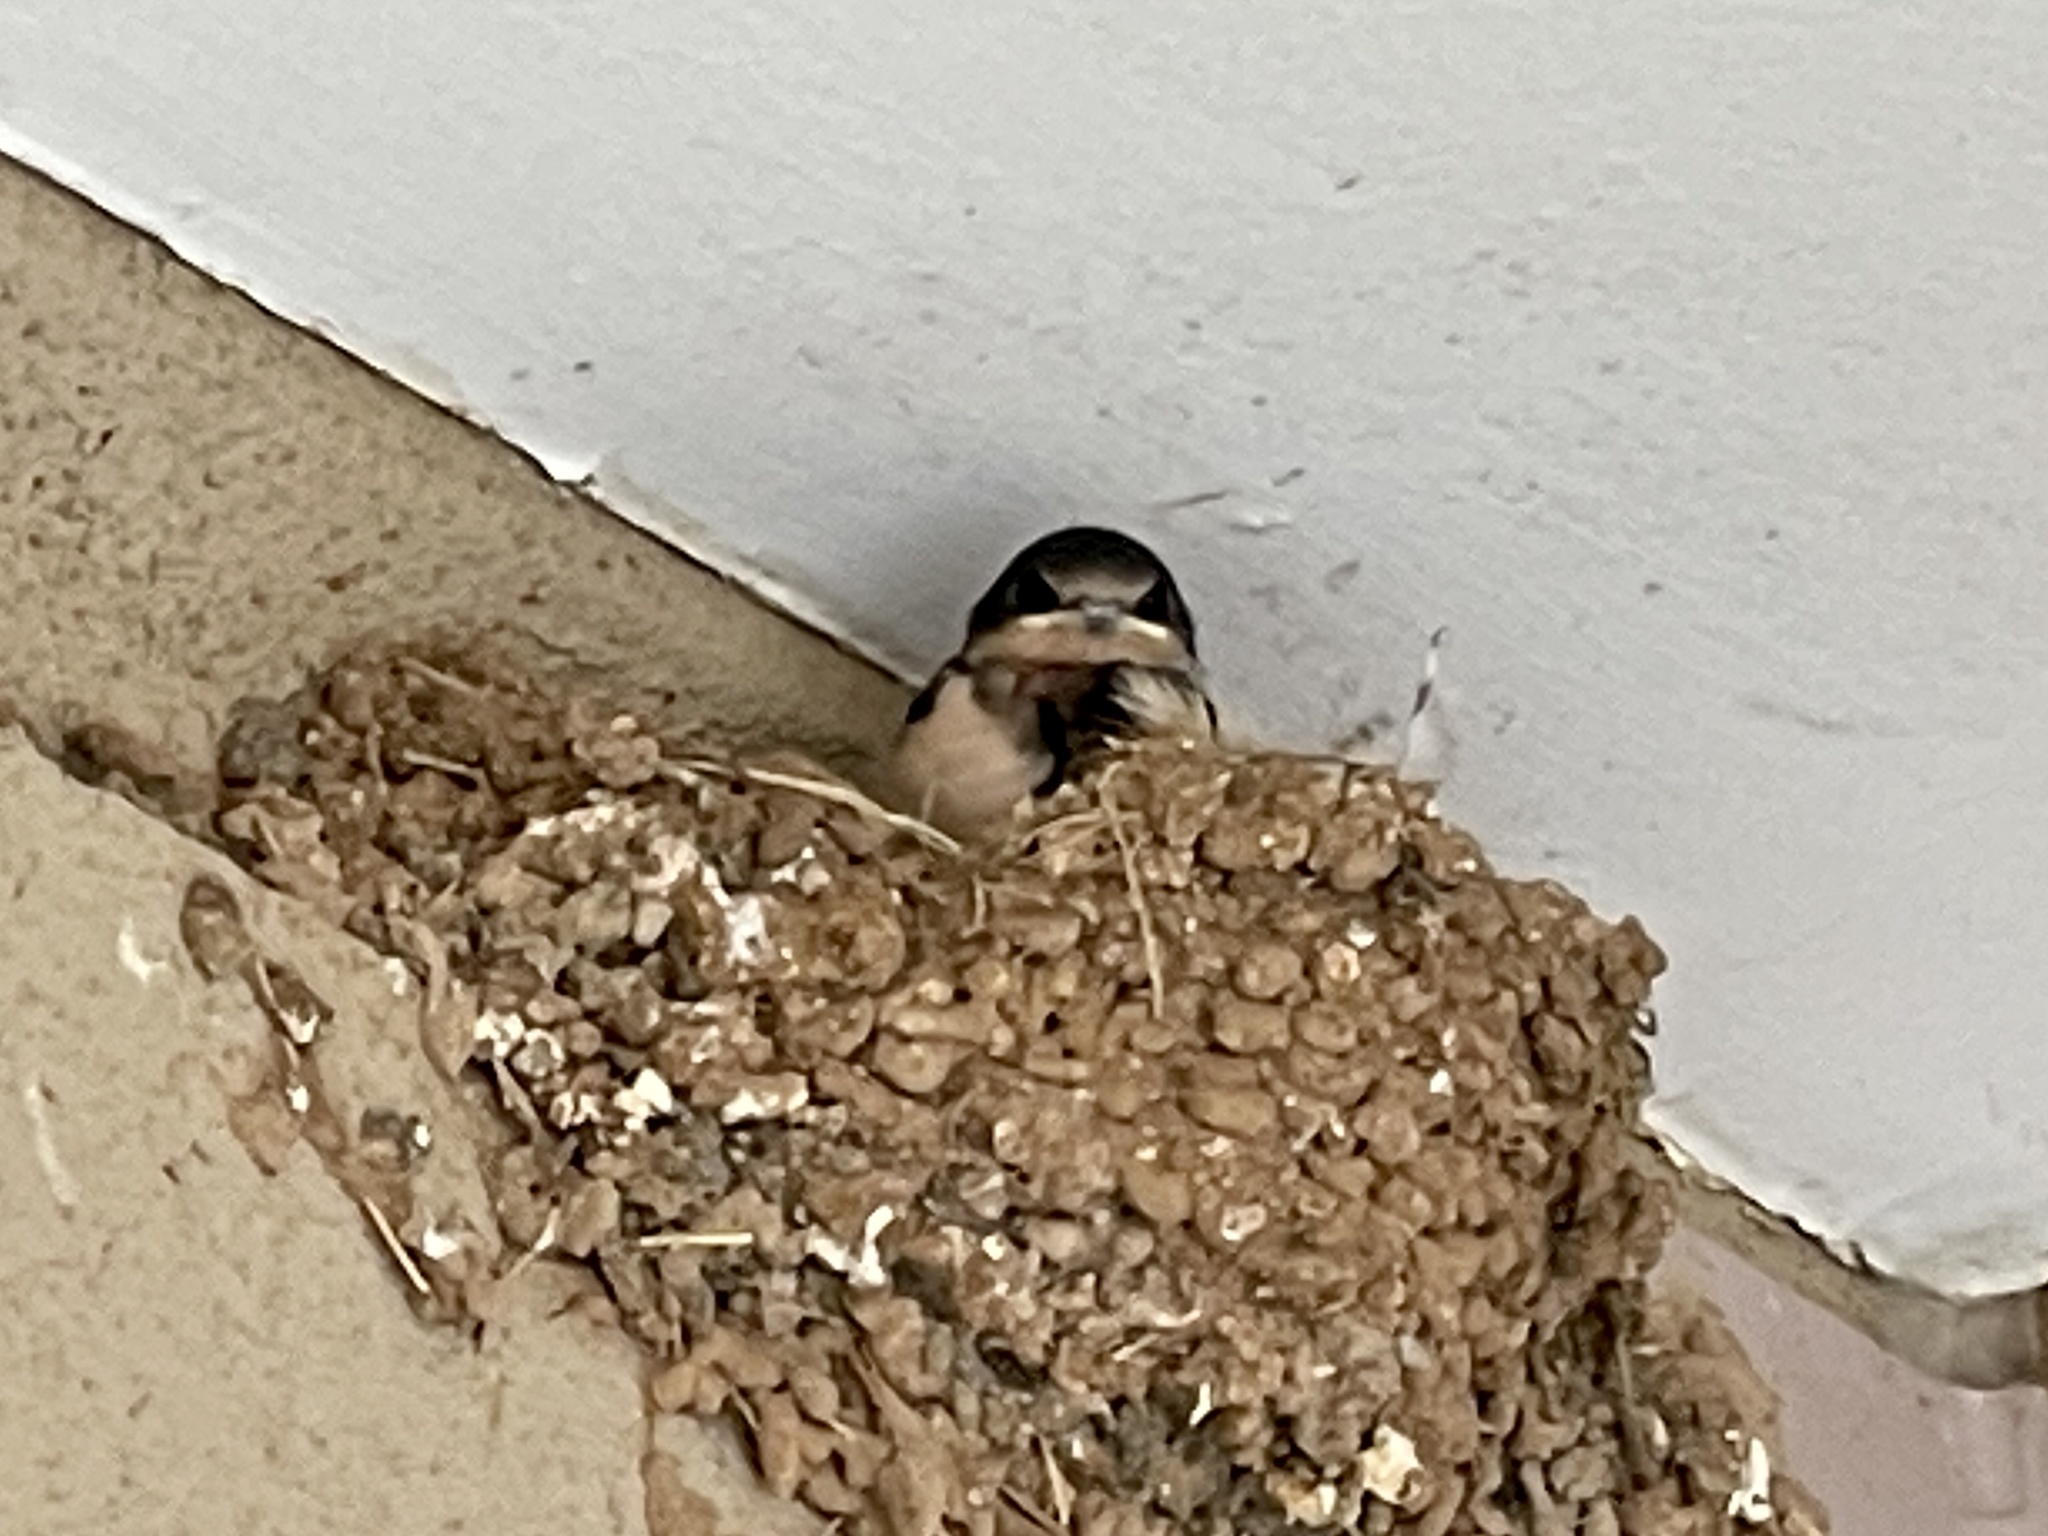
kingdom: Animalia
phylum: Chordata
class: Aves
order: Passeriformes
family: Hirundinidae
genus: Hirundo
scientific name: Hirundo rustica
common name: Barn swallow
